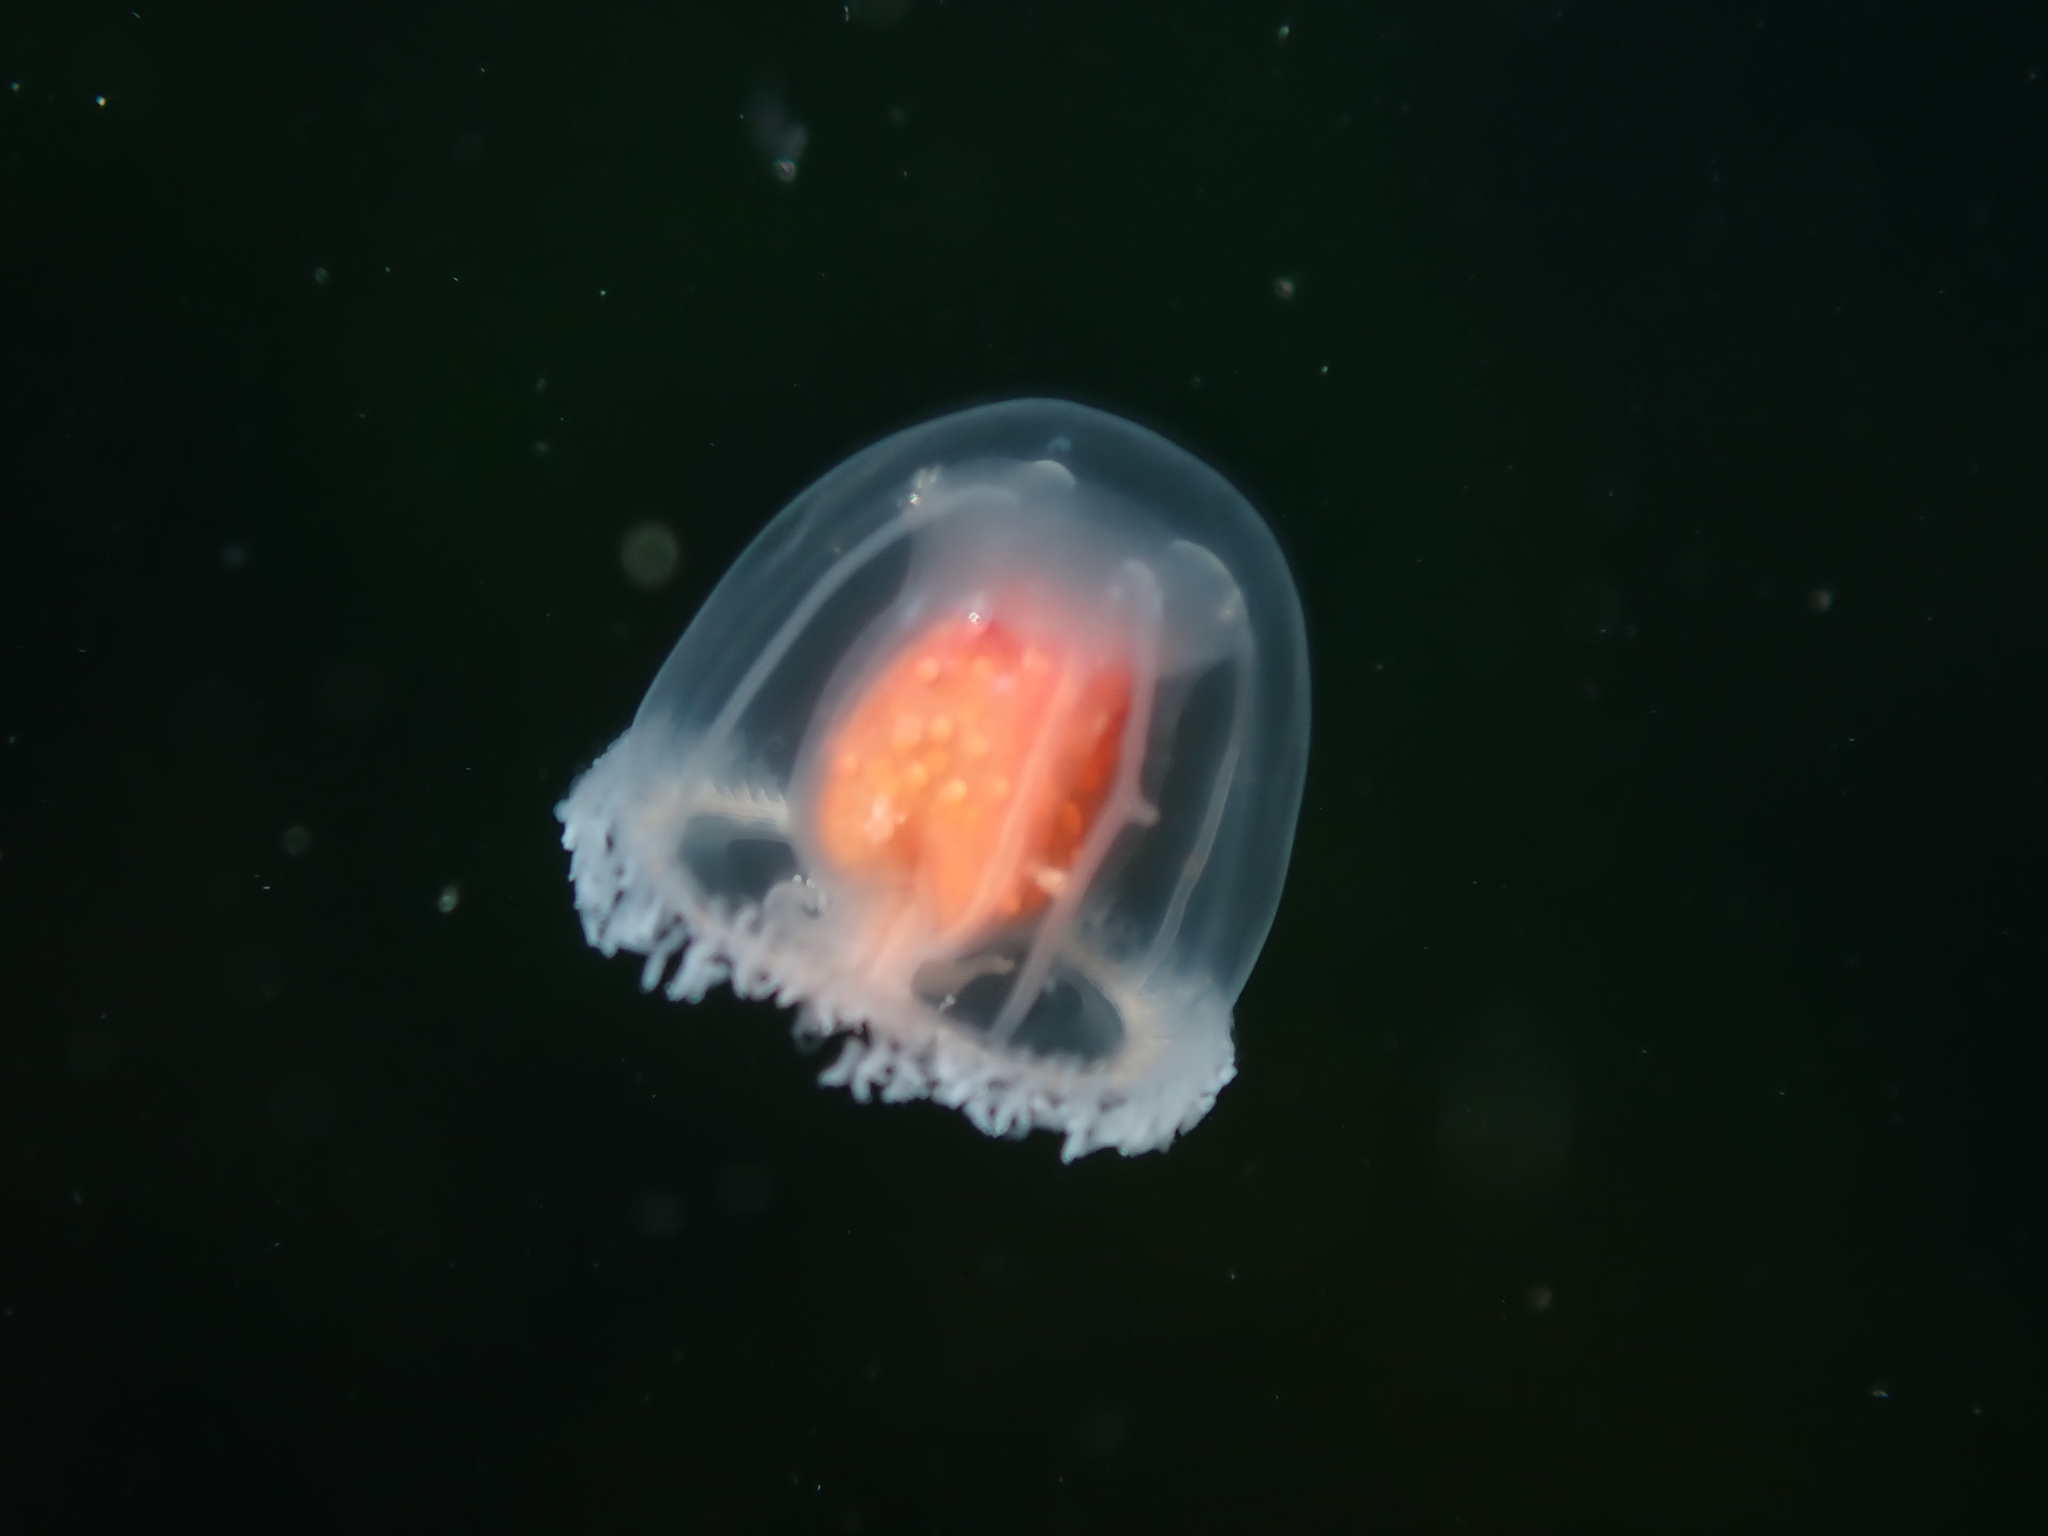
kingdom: Animalia
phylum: Cnidaria
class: Hydrozoa
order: Anthoathecata
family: Oceaniidae
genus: Turritopsis
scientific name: Turritopsis rubra
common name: Crimson jelly
